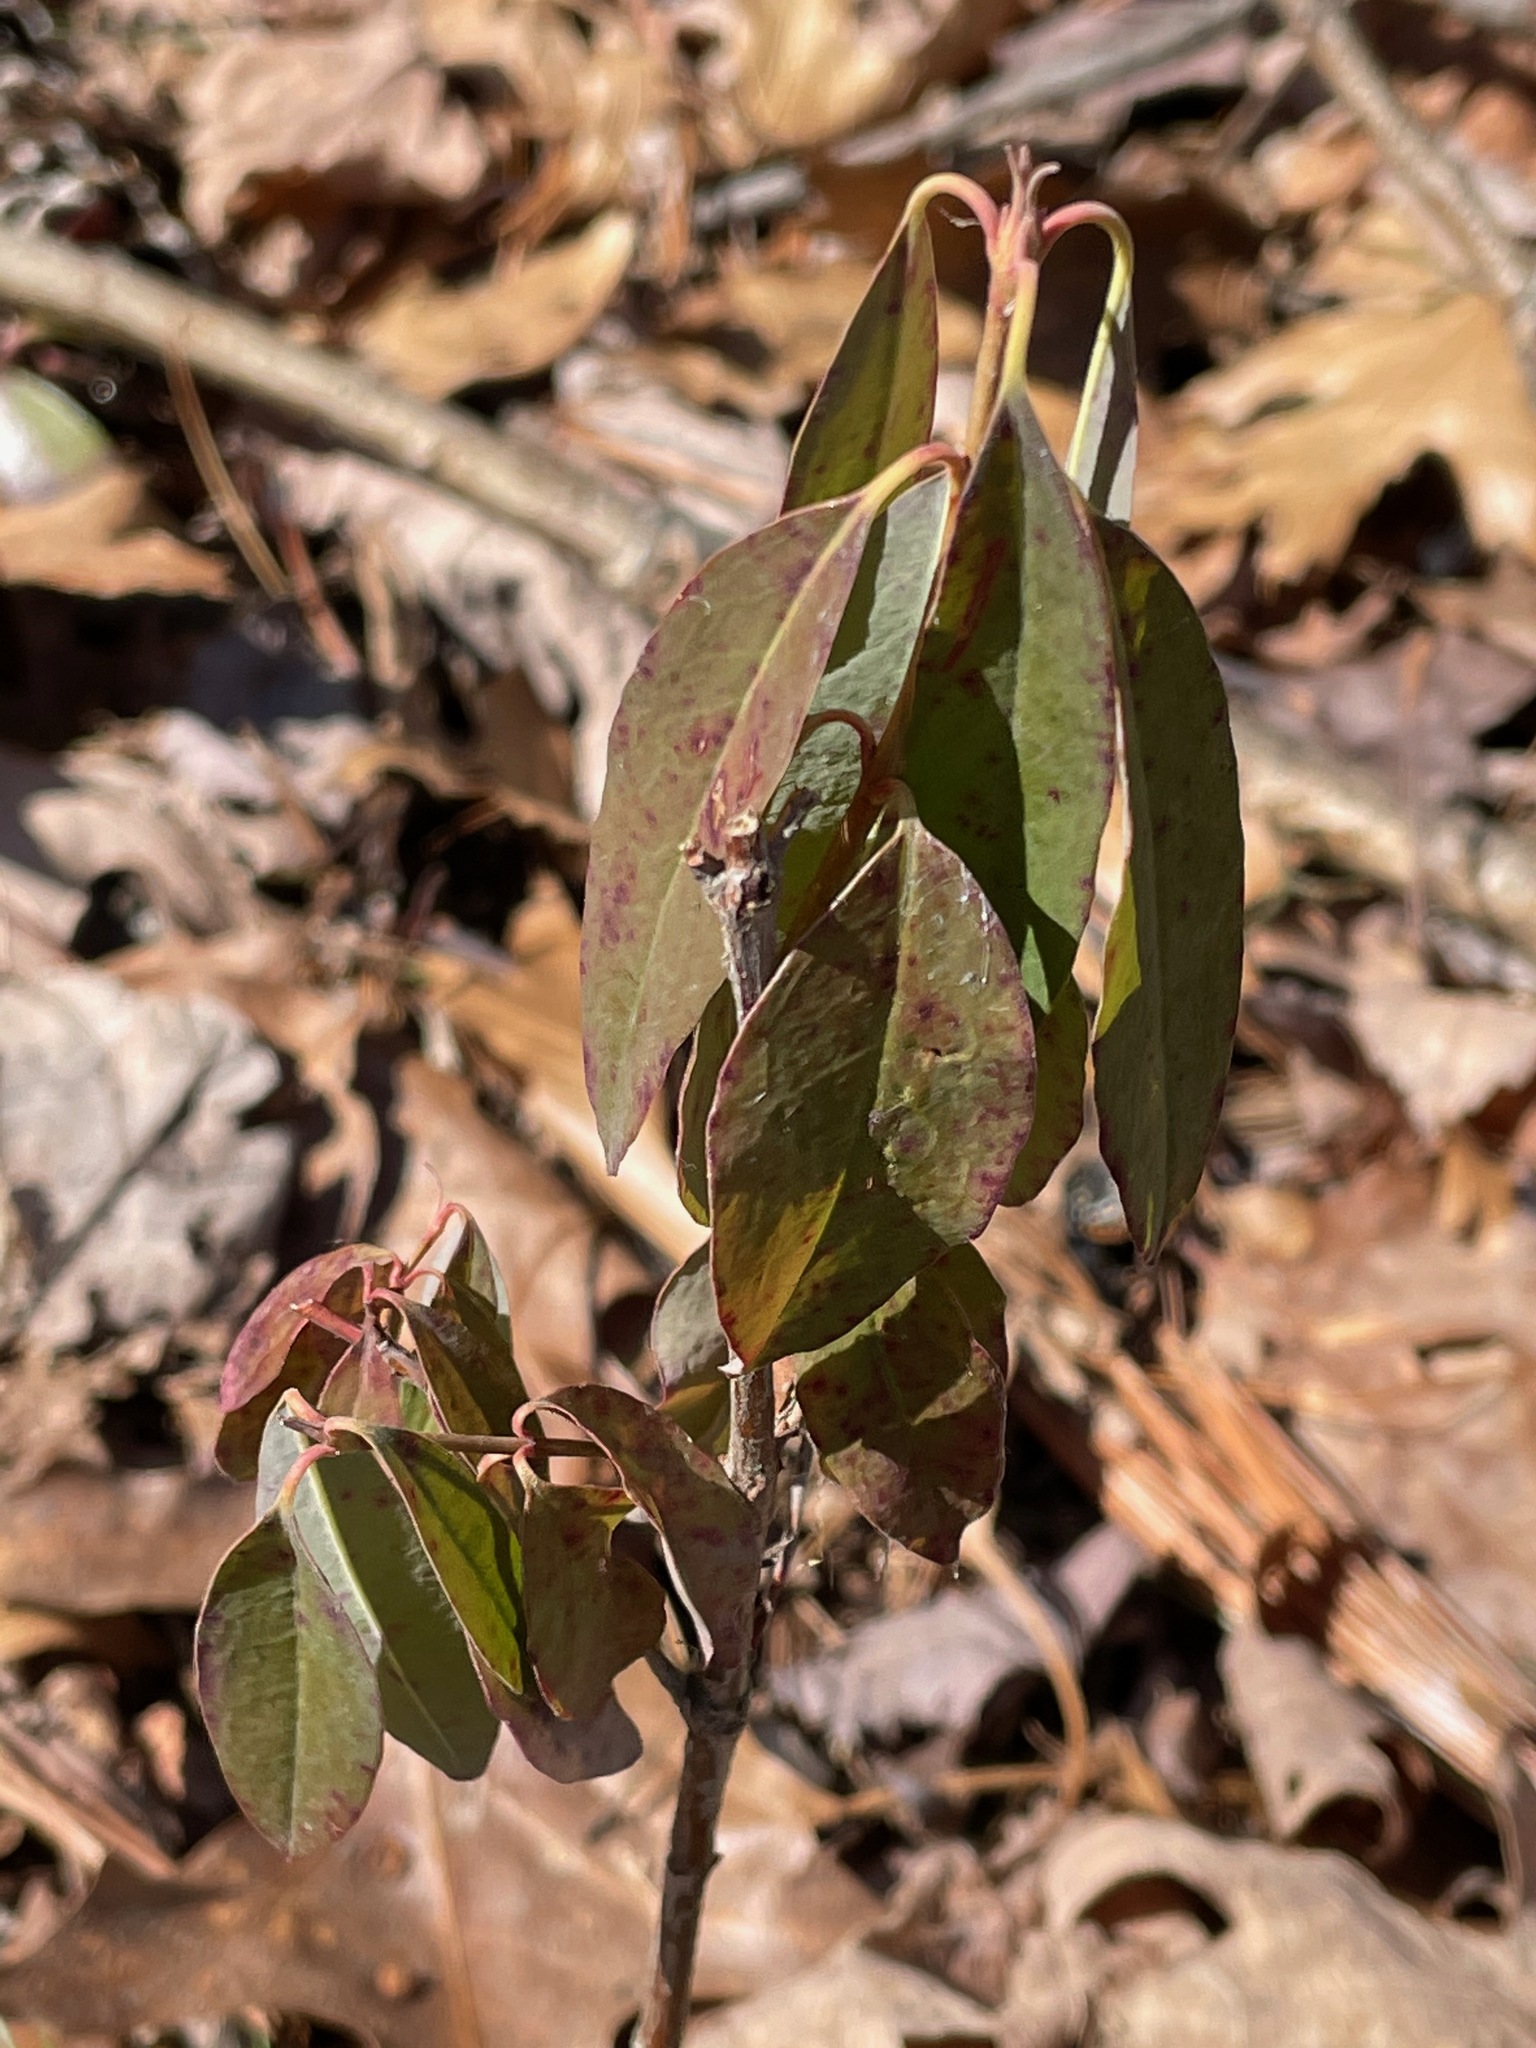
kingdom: Plantae
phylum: Tracheophyta
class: Magnoliopsida
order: Ericales
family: Ericaceae
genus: Kalmia
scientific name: Kalmia angustifolia
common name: Sheep-laurel
